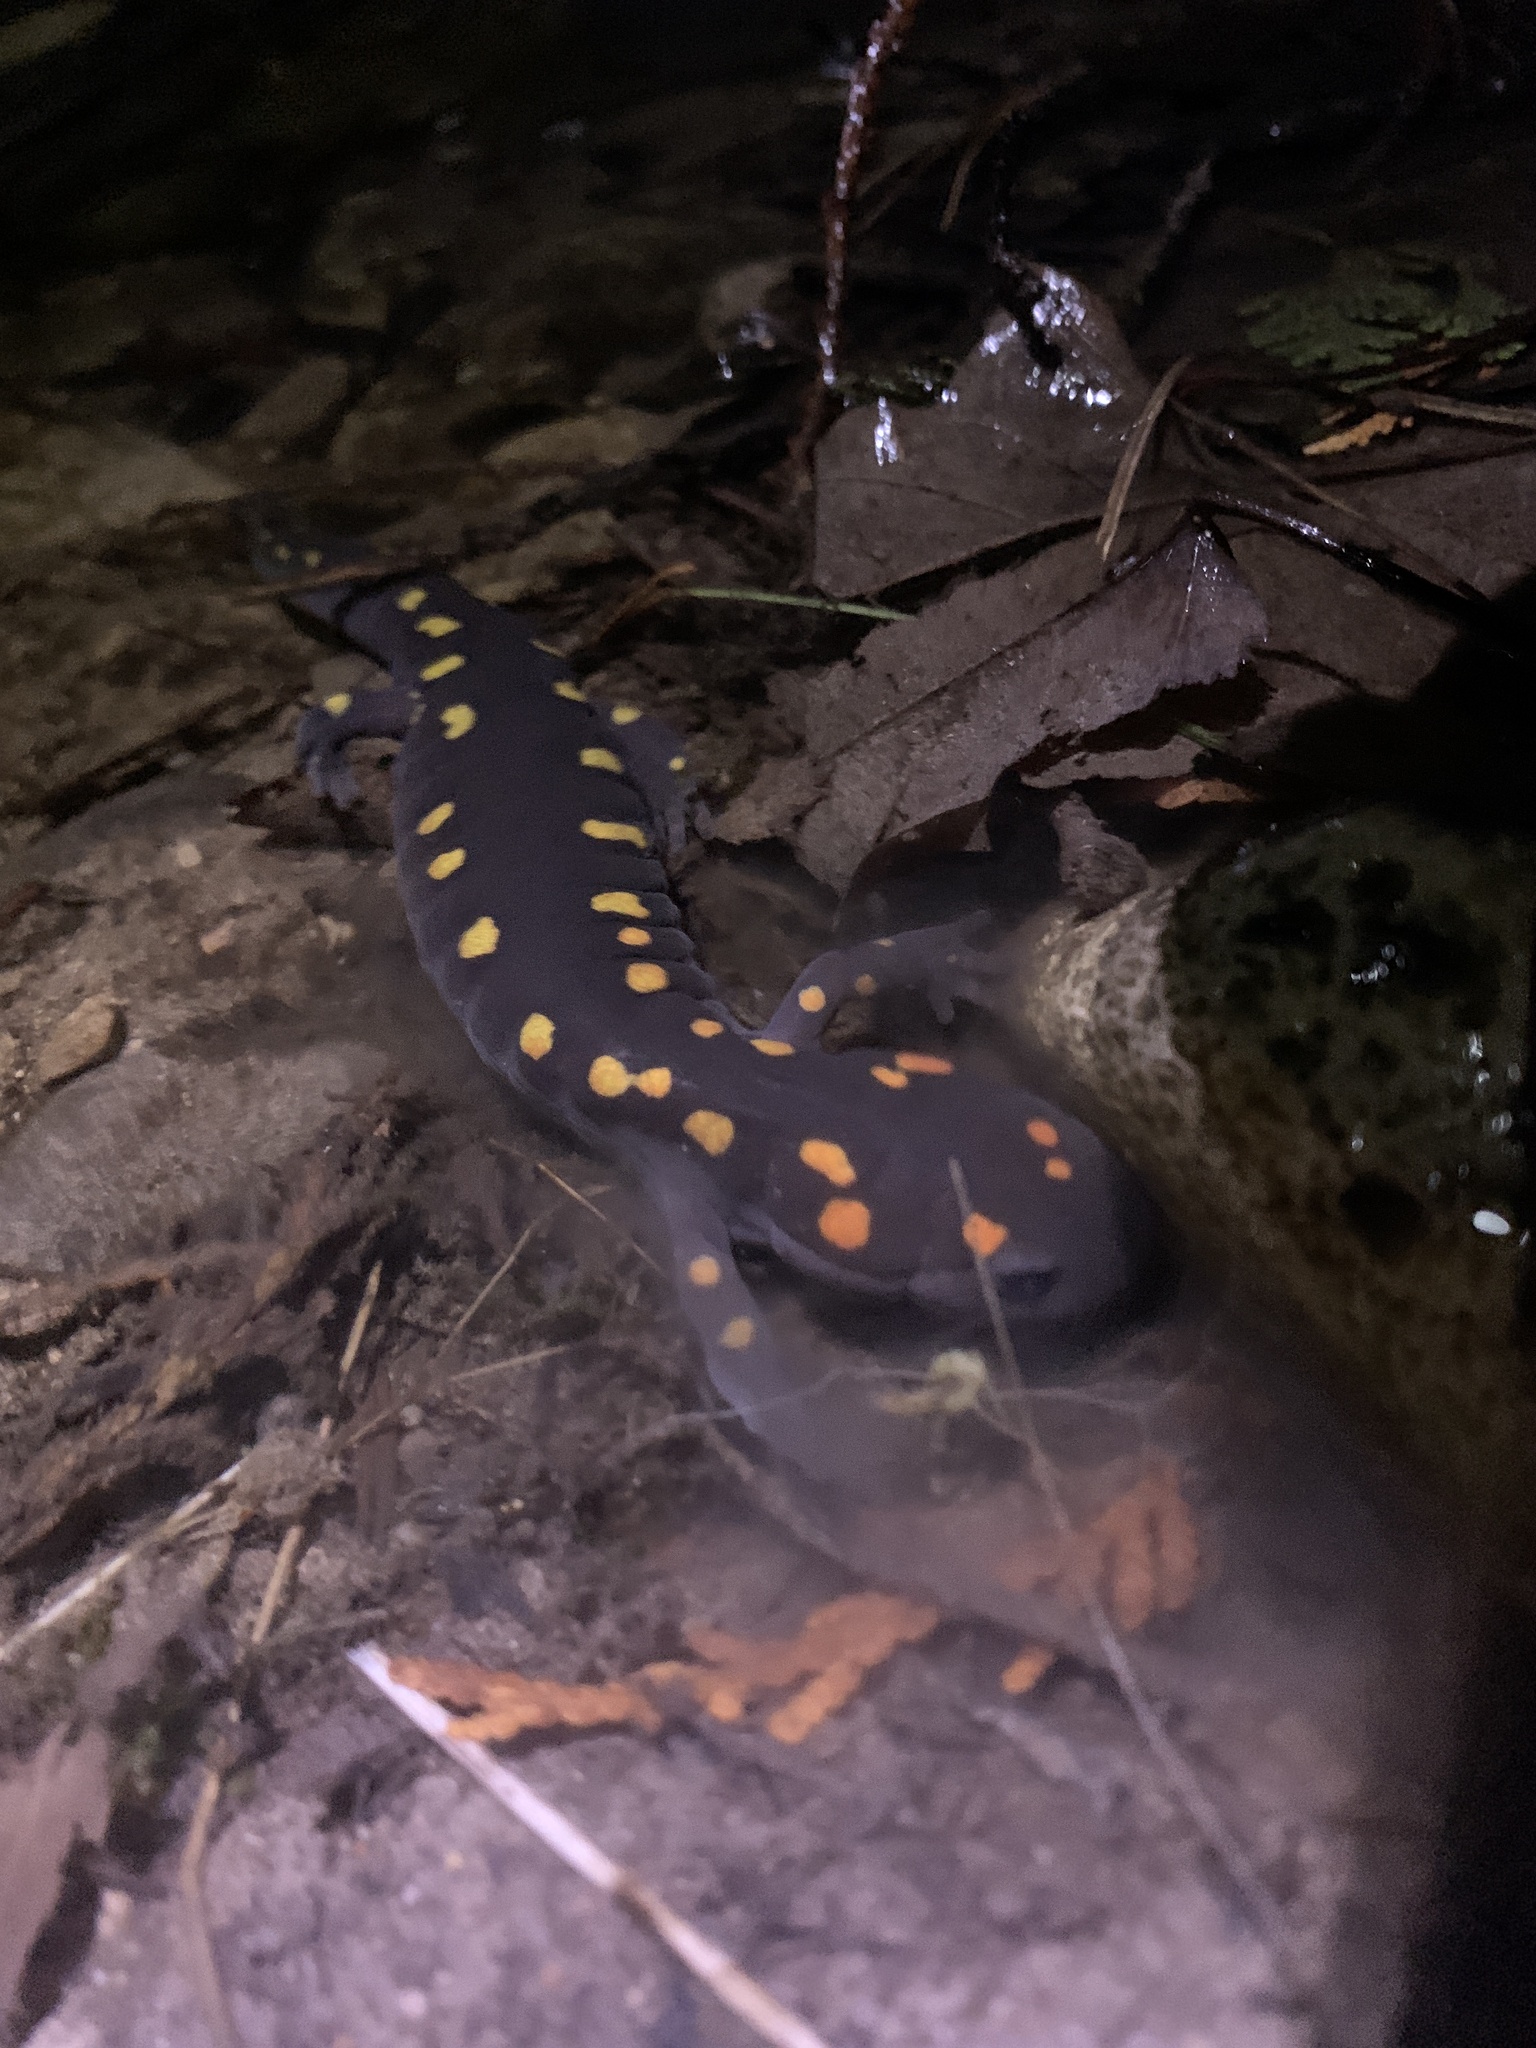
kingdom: Animalia
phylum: Chordata
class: Amphibia
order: Caudata
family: Ambystomatidae
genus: Ambystoma
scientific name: Ambystoma maculatum
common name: Spotted salamander
